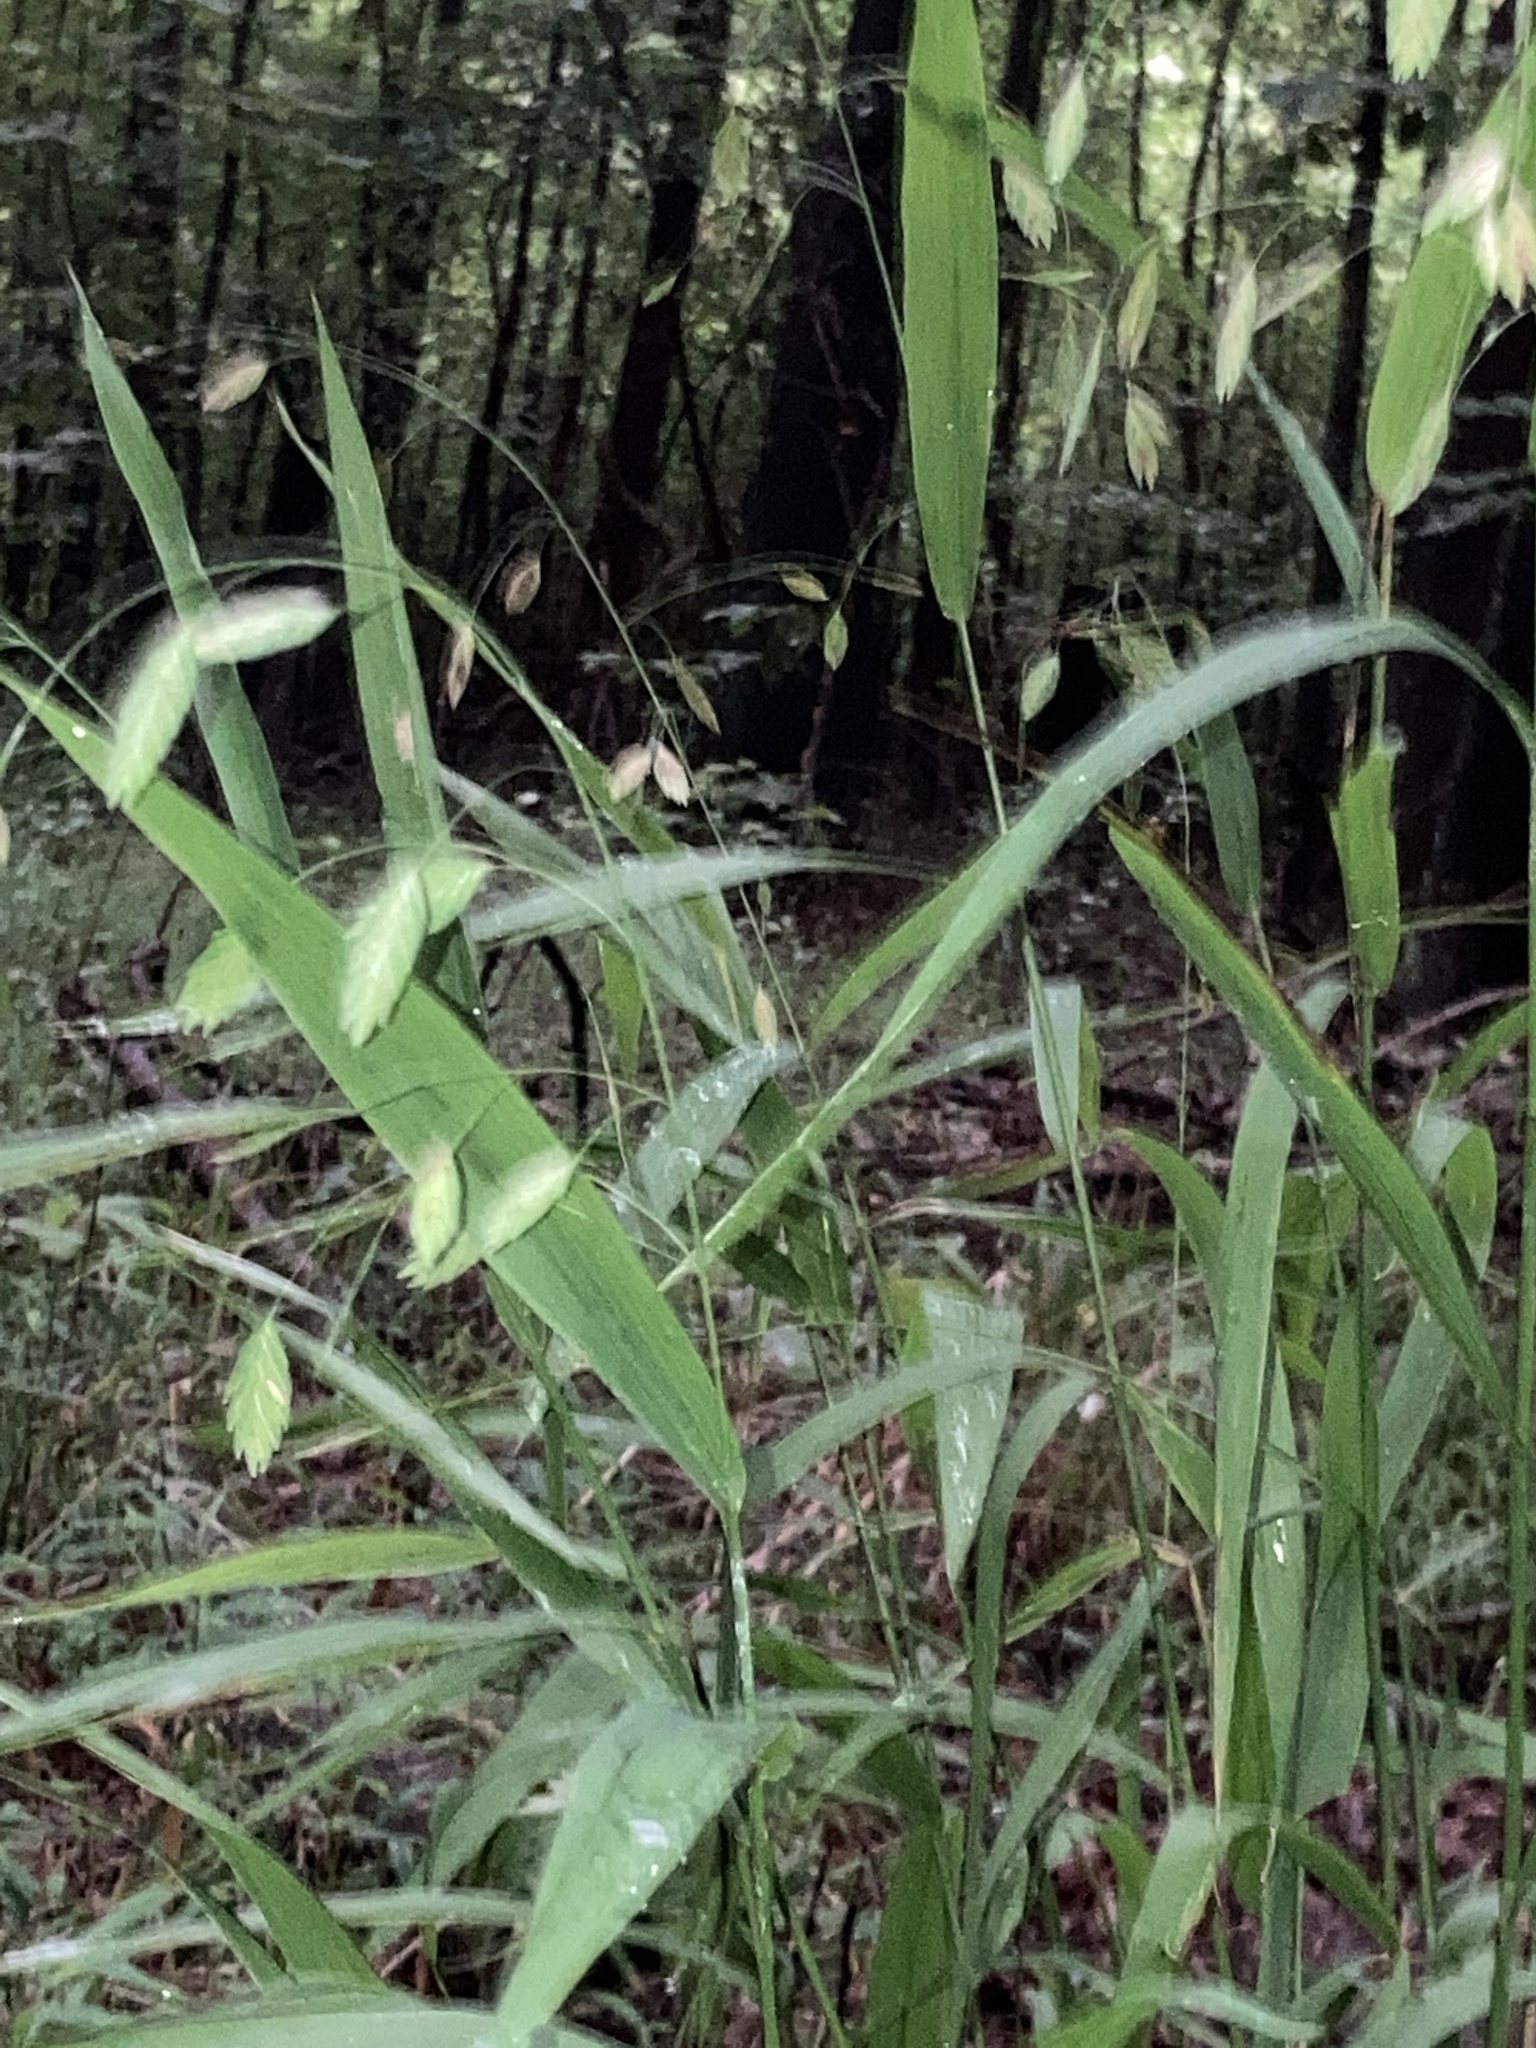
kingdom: Plantae
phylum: Tracheophyta
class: Liliopsida
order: Poales
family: Poaceae
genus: Chasmanthium
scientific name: Chasmanthium latifolium
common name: Broad-leaved chasmanthium
